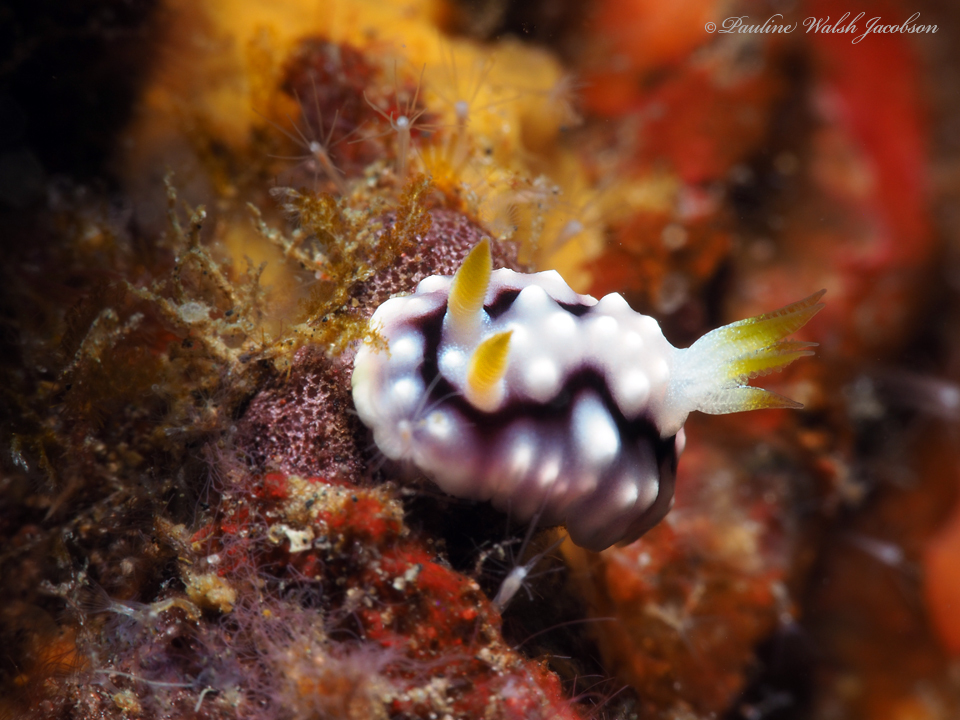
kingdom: Animalia
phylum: Mollusca
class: Gastropoda
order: Nudibranchia
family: Chromodorididae
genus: Goniobranchus
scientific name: Goniobranchus geometricus
